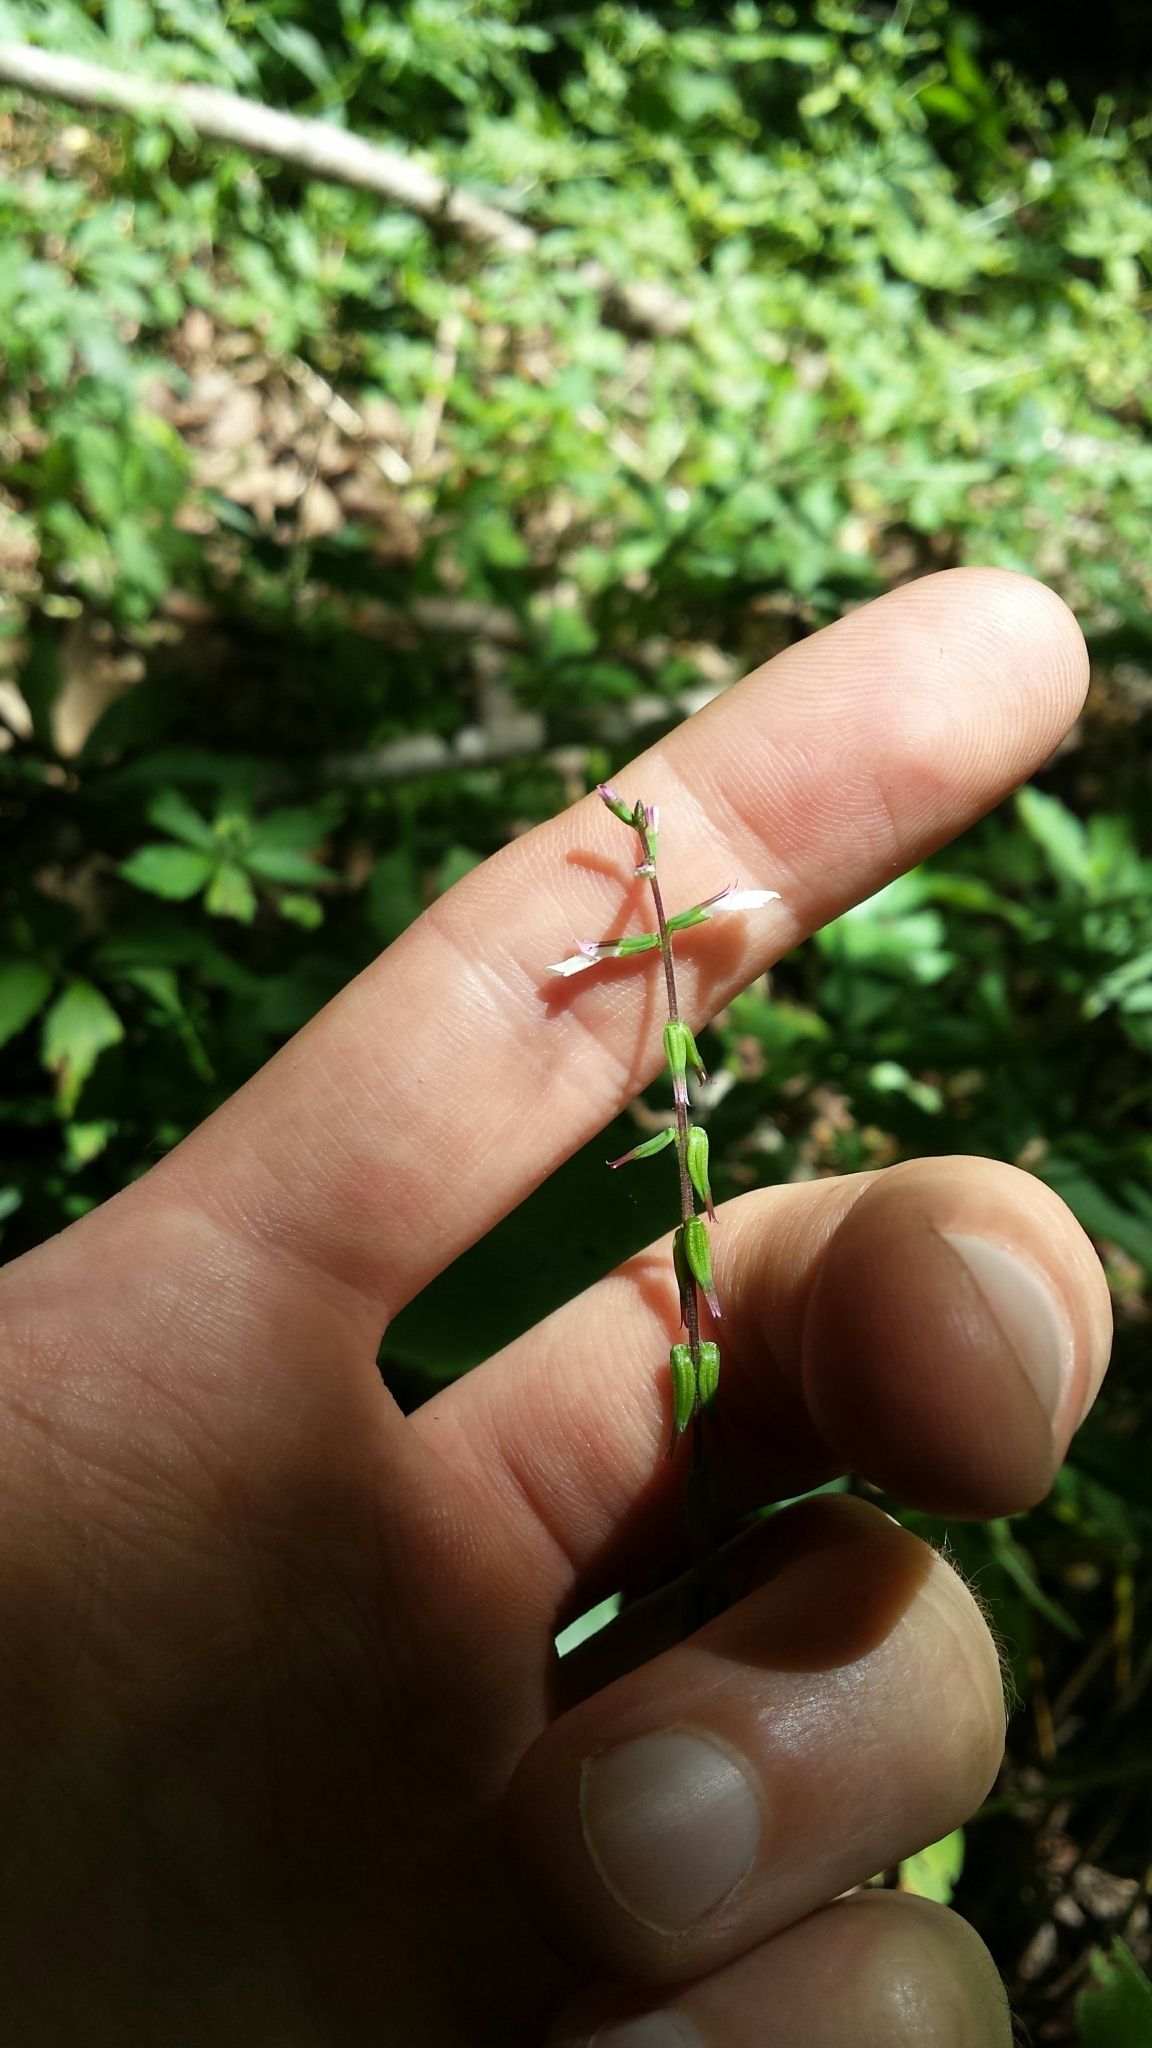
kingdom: Plantae
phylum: Tracheophyta
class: Magnoliopsida
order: Lamiales
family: Phrymaceae
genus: Phryma
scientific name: Phryma leptostachya
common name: American lopseed
